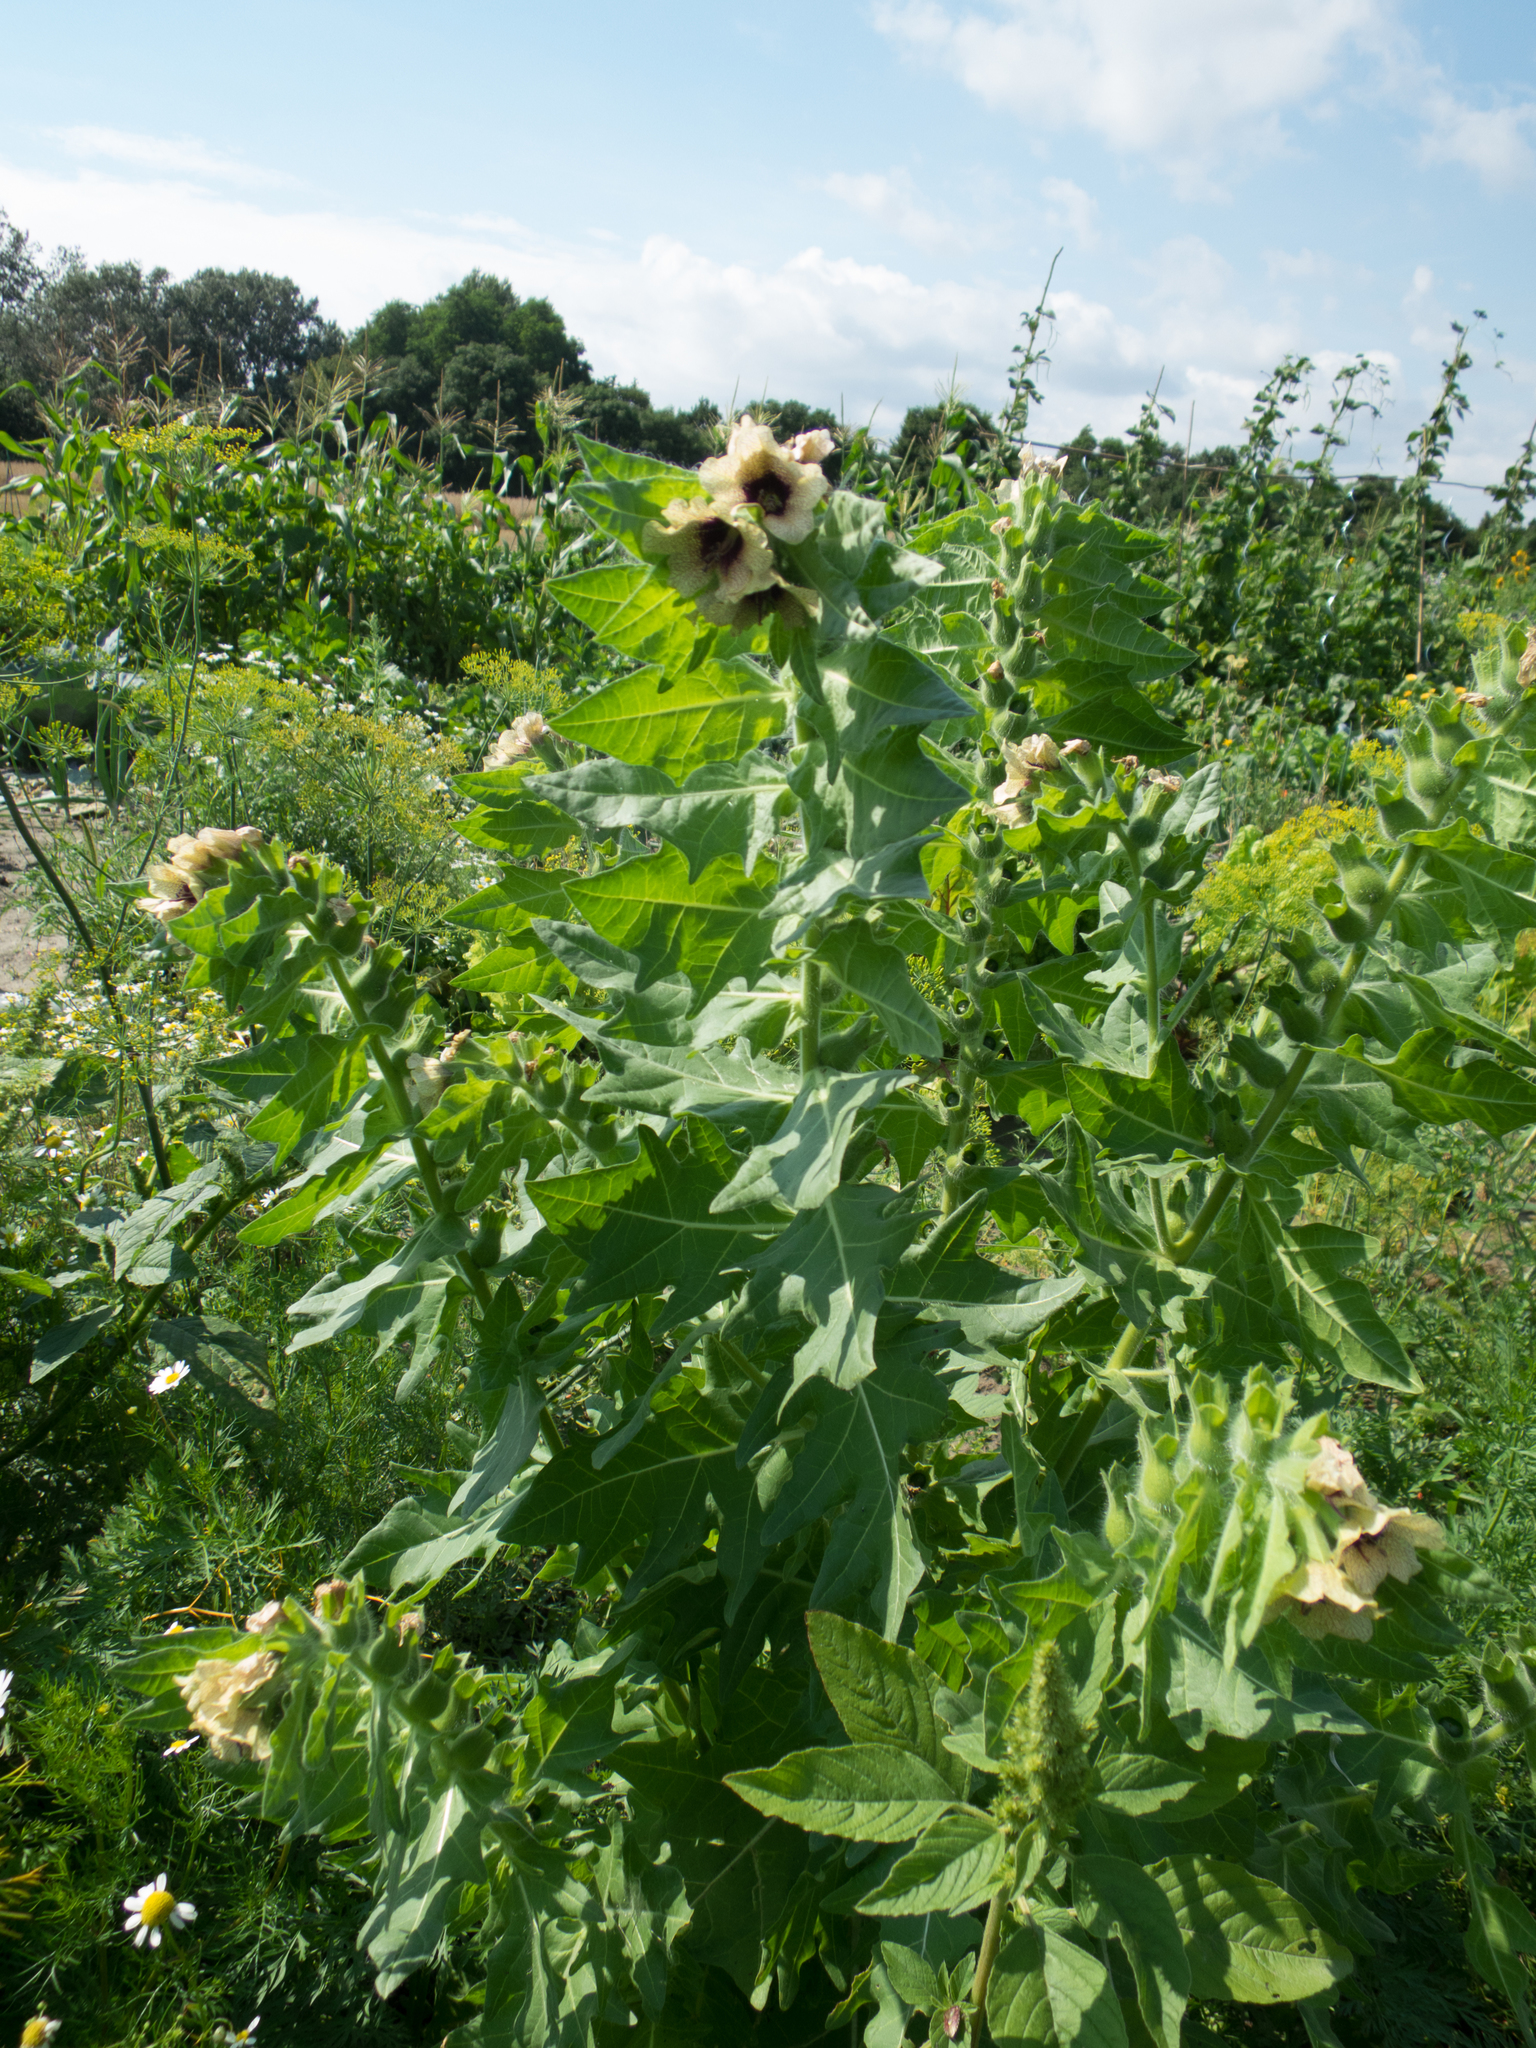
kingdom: Plantae
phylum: Tracheophyta
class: Magnoliopsida
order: Solanales
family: Solanaceae
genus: Hyoscyamus
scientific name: Hyoscyamus niger
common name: Henbane
